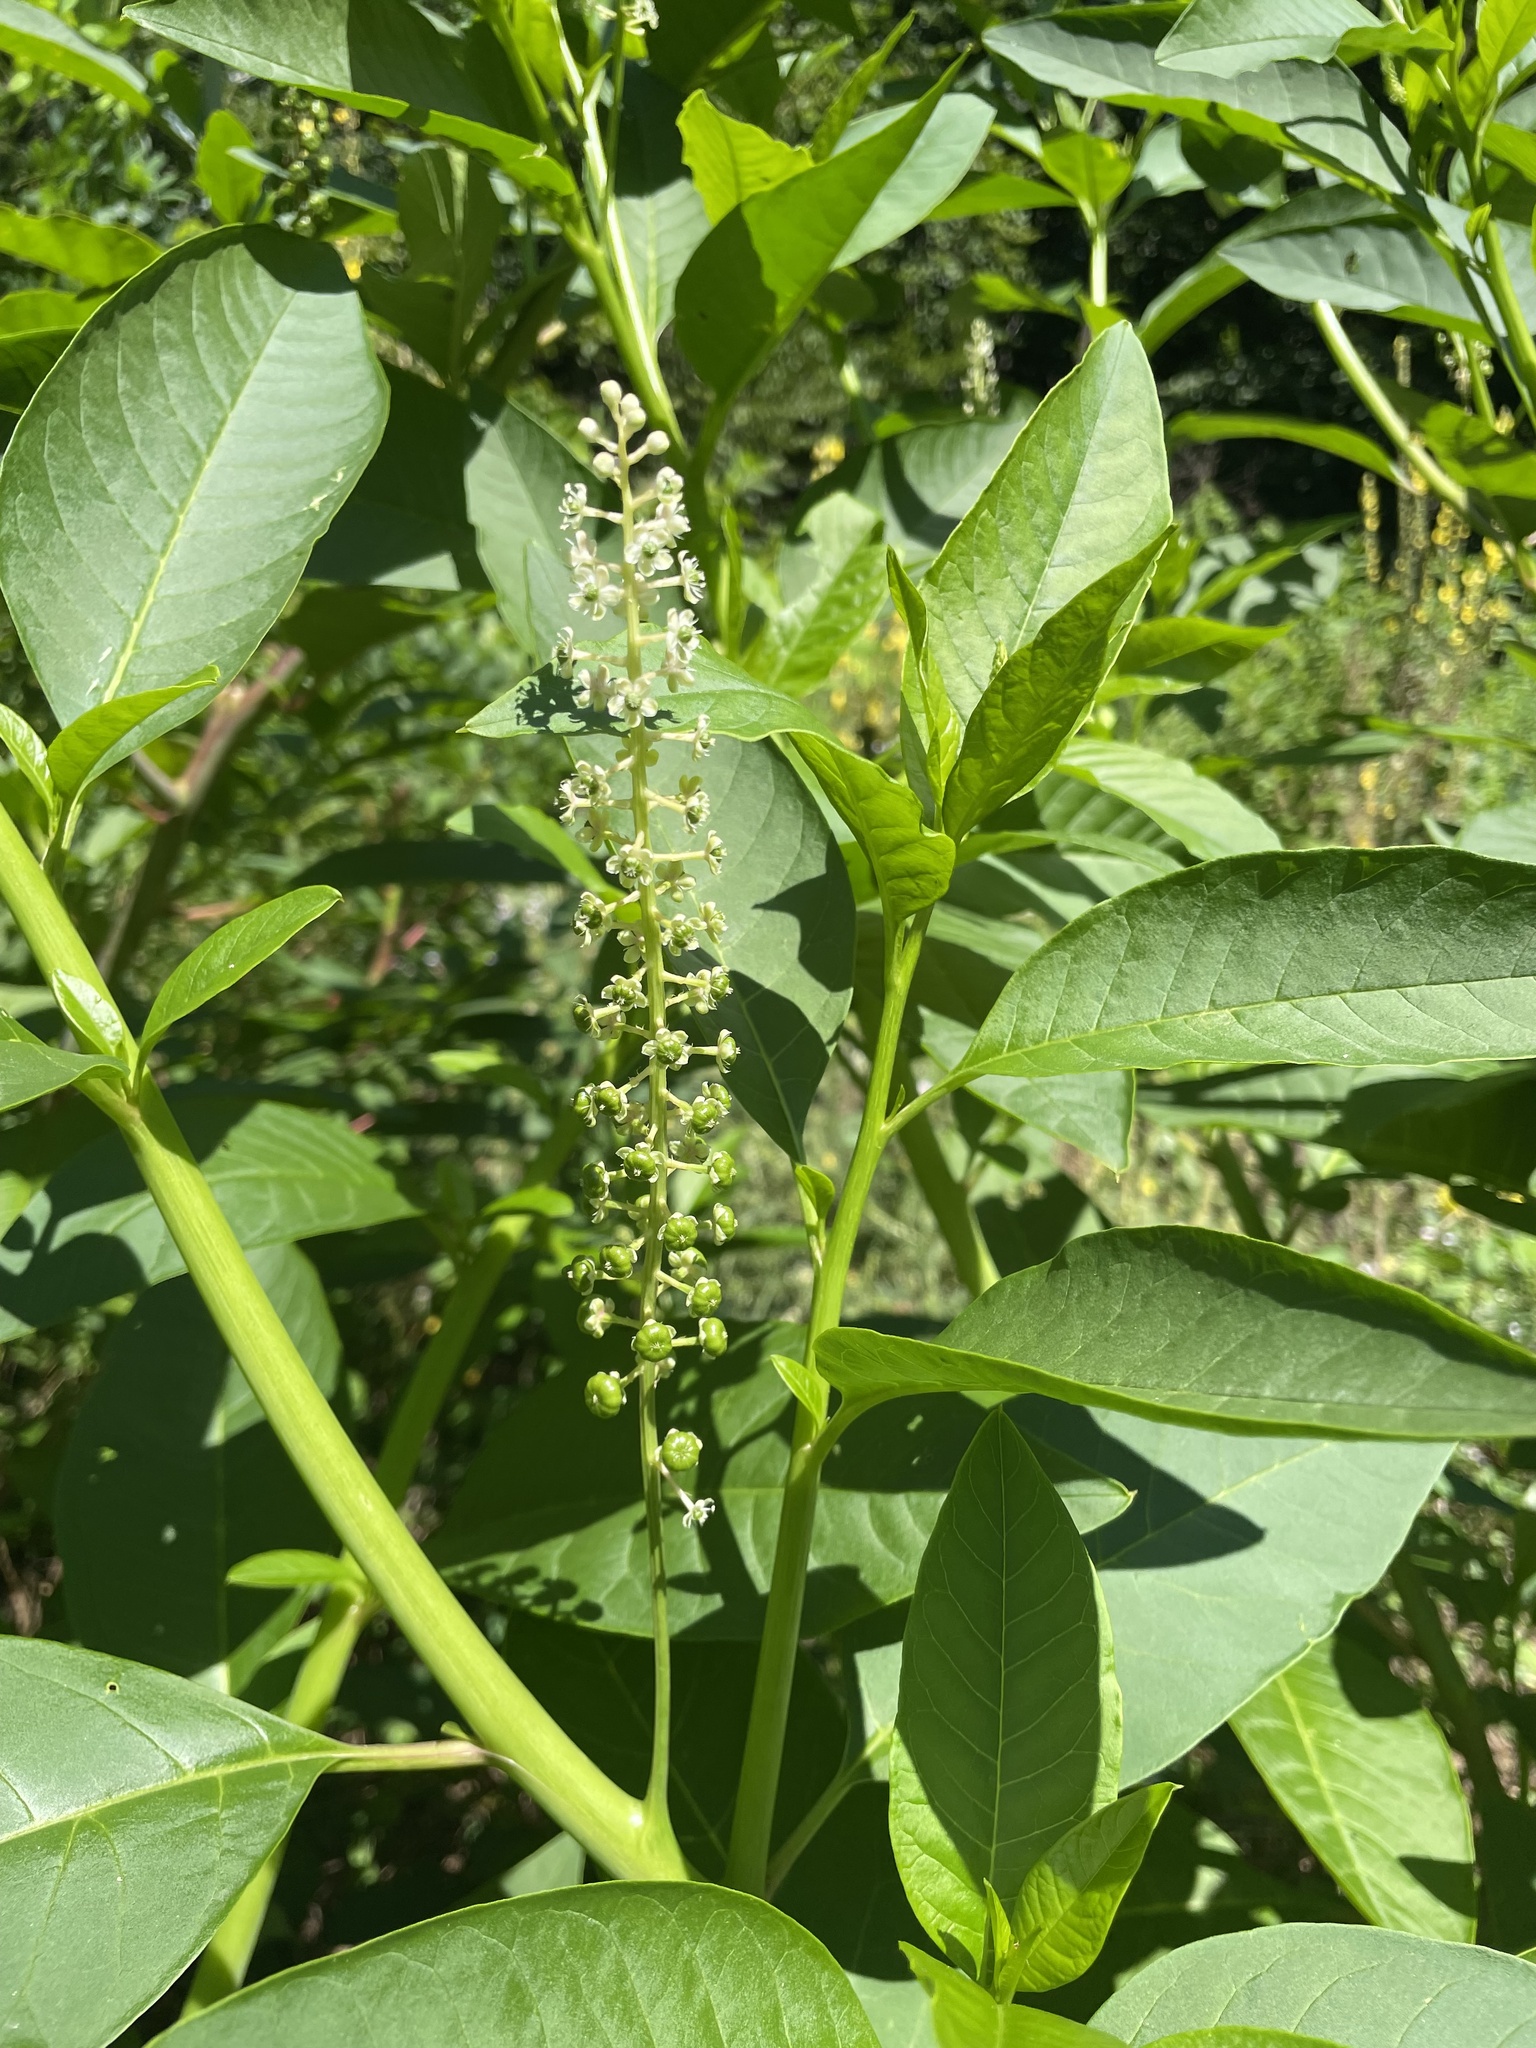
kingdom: Plantae
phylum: Tracheophyta
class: Magnoliopsida
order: Caryophyllales
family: Phytolaccaceae
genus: Phytolacca
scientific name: Phytolacca americana
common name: American pokeweed
